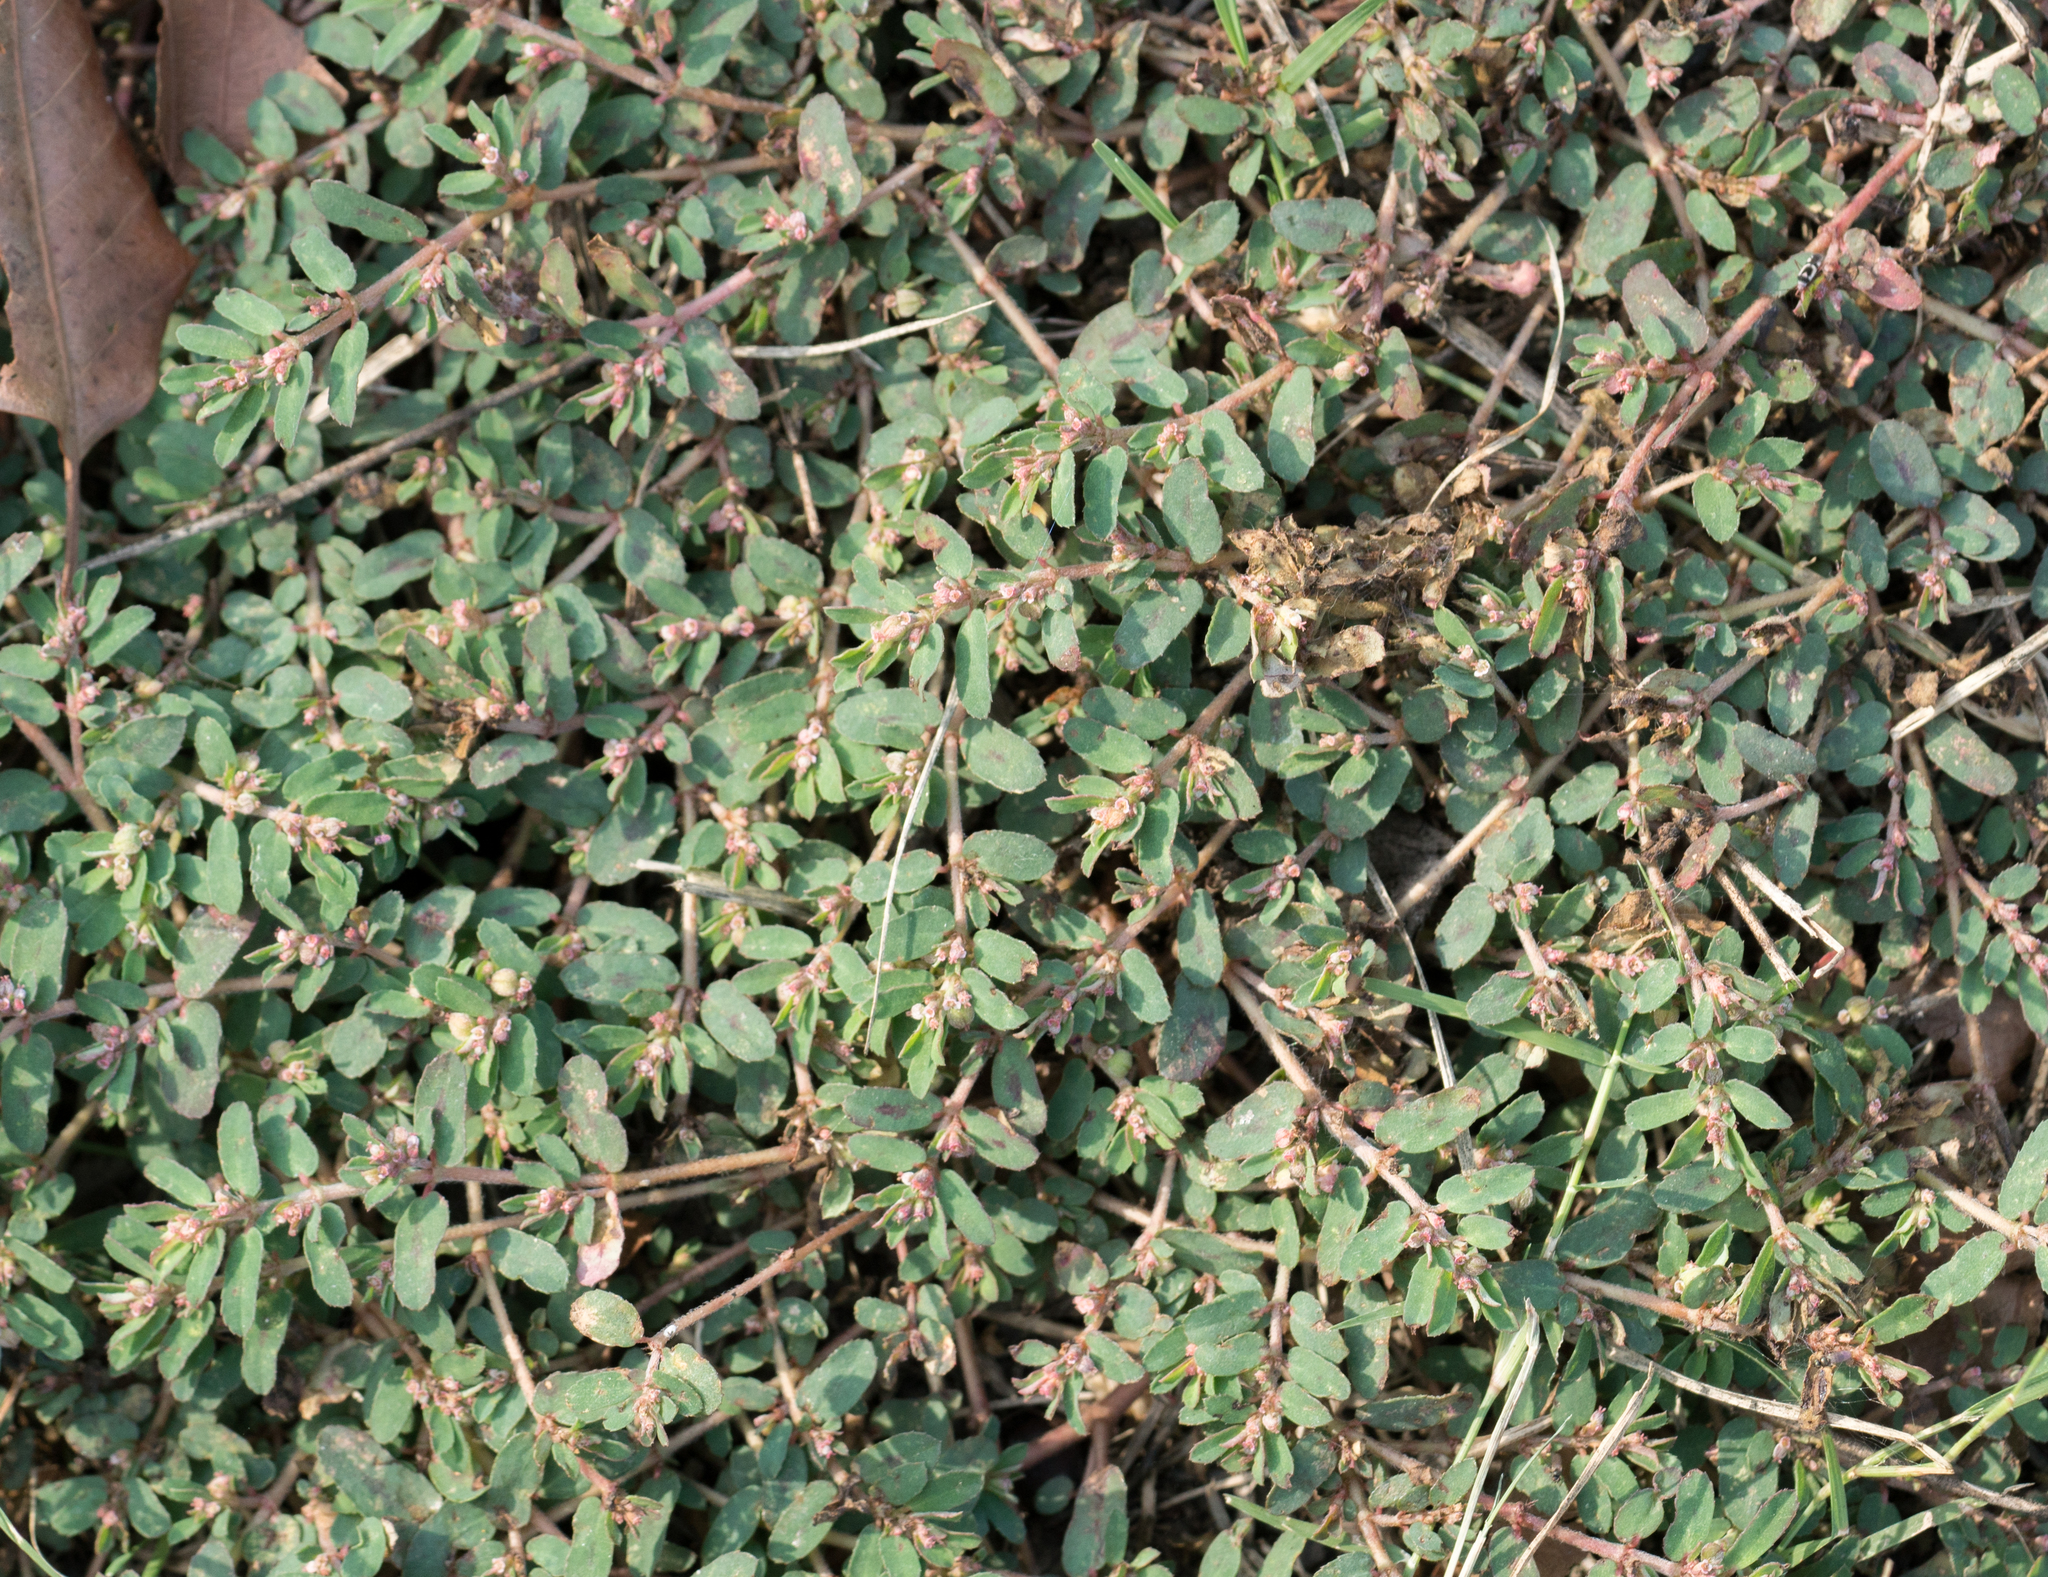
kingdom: Plantae
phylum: Tracheophyta
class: Magnoliopsida
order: Malpighiales
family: Euphorbiaceae
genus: Euphorbia
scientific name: Euphorbia maculata
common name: Spotted spurge
